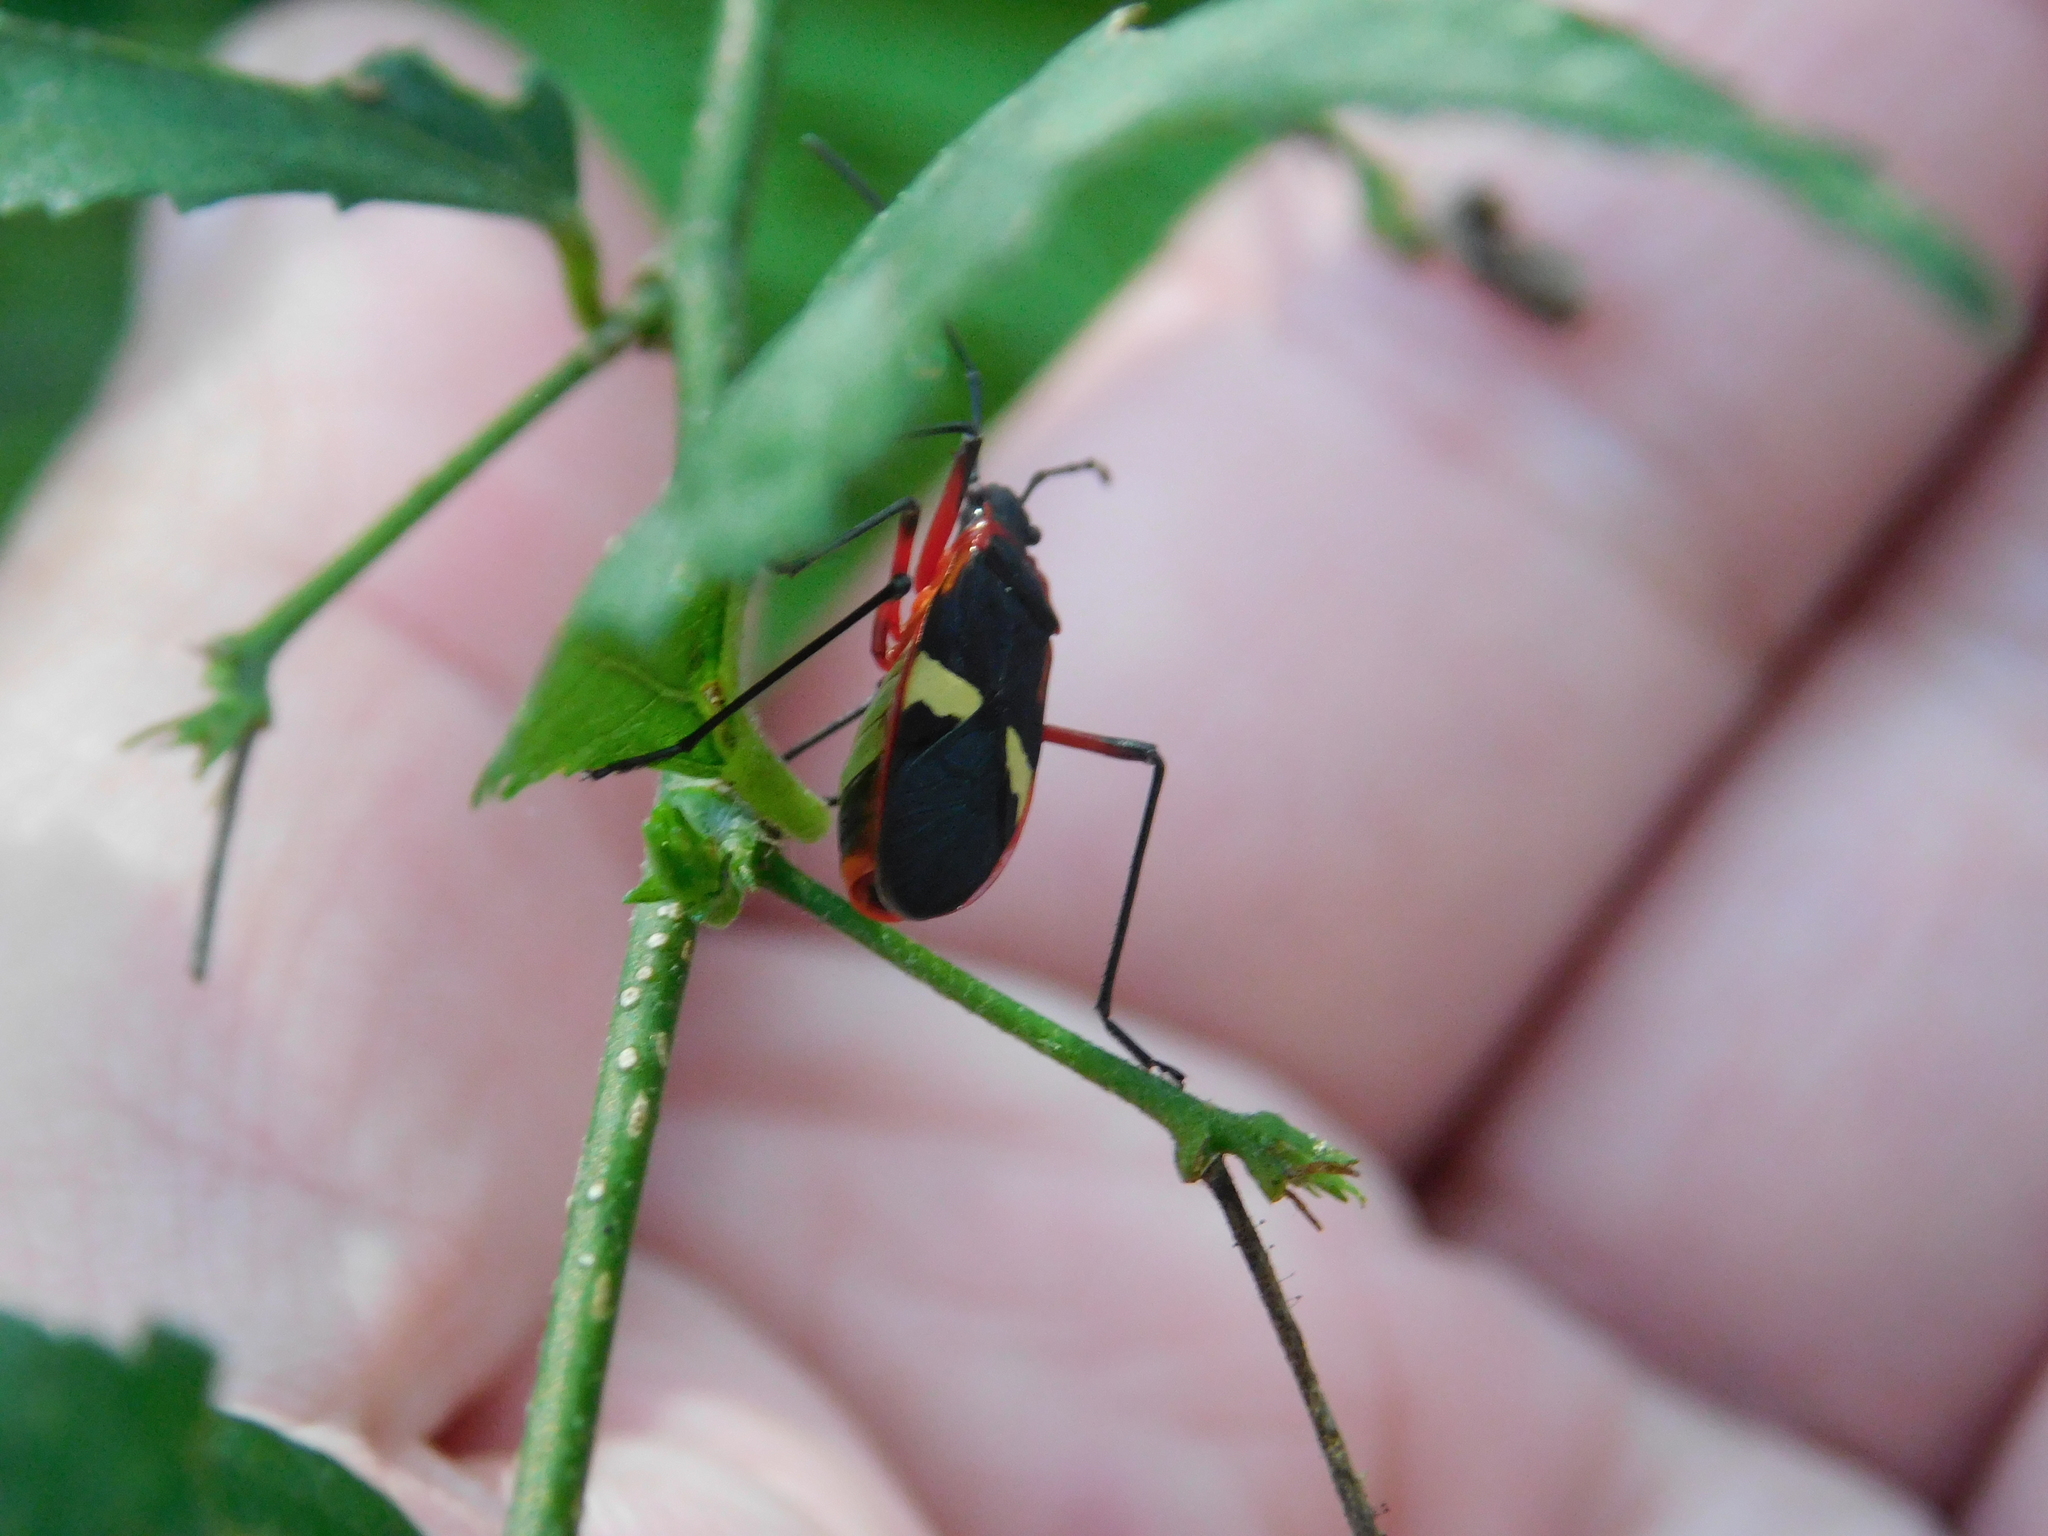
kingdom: Animalia
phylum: Arthropoda
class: Insecta
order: Hemiptera
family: Pyrrhocoridae
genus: Dysdercus
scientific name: Dysdercus albofasciatus
